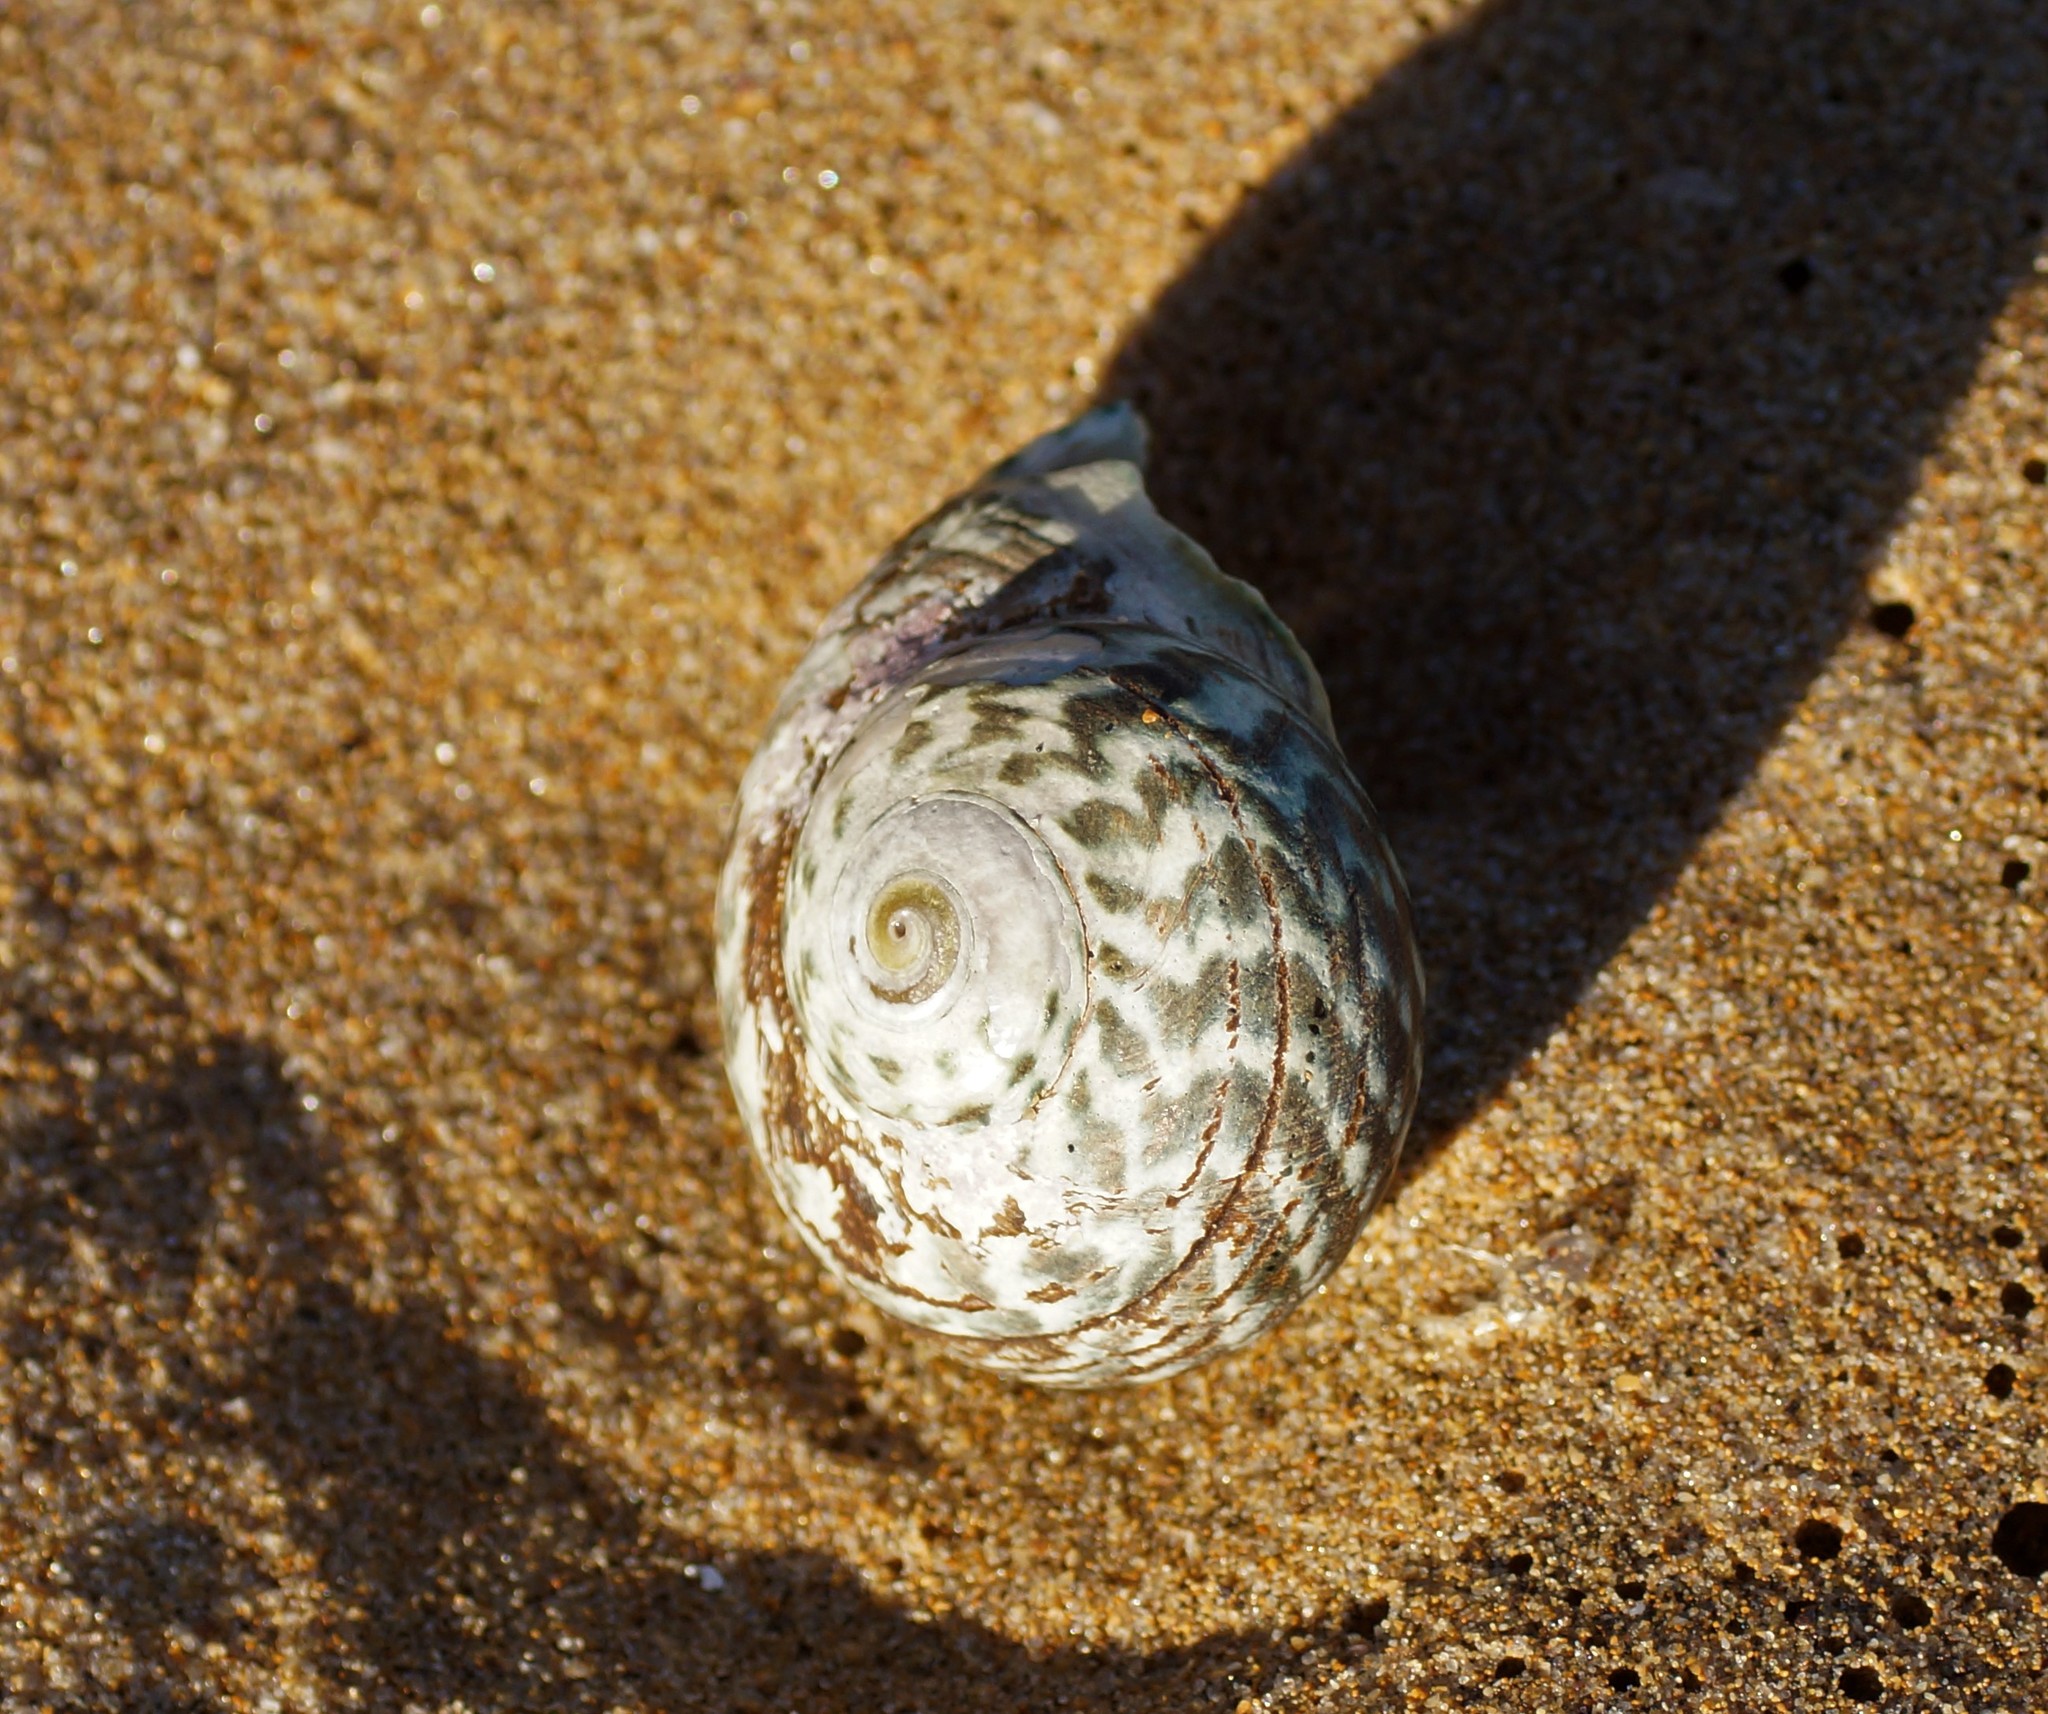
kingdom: Animalia
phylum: Mollusca
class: Gastropoda
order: Trochida
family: Turbinidae
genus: Lunella
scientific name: Lunella undulata
